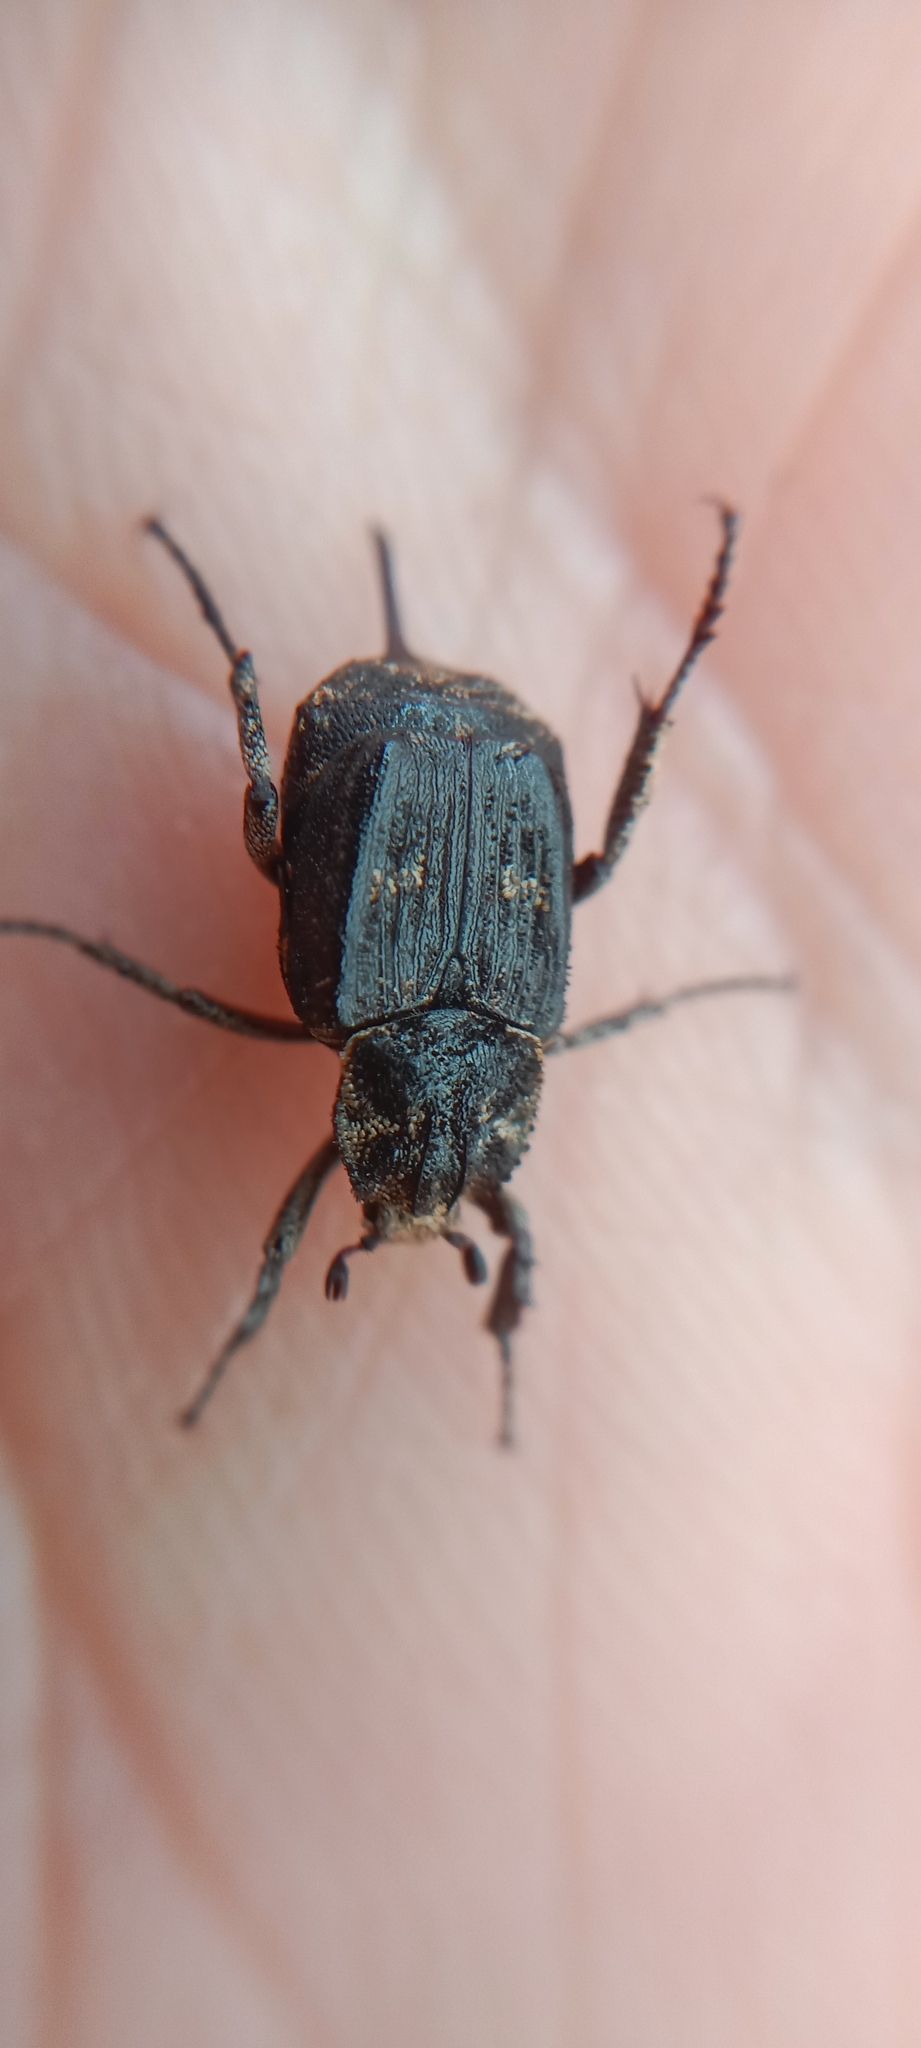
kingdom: Animalia
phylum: Arthropoda
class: Insecta
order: Coleoptera
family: Scarabaeidae
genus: Valgus
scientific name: Valgus hemipterus
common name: Bug flower chafer
